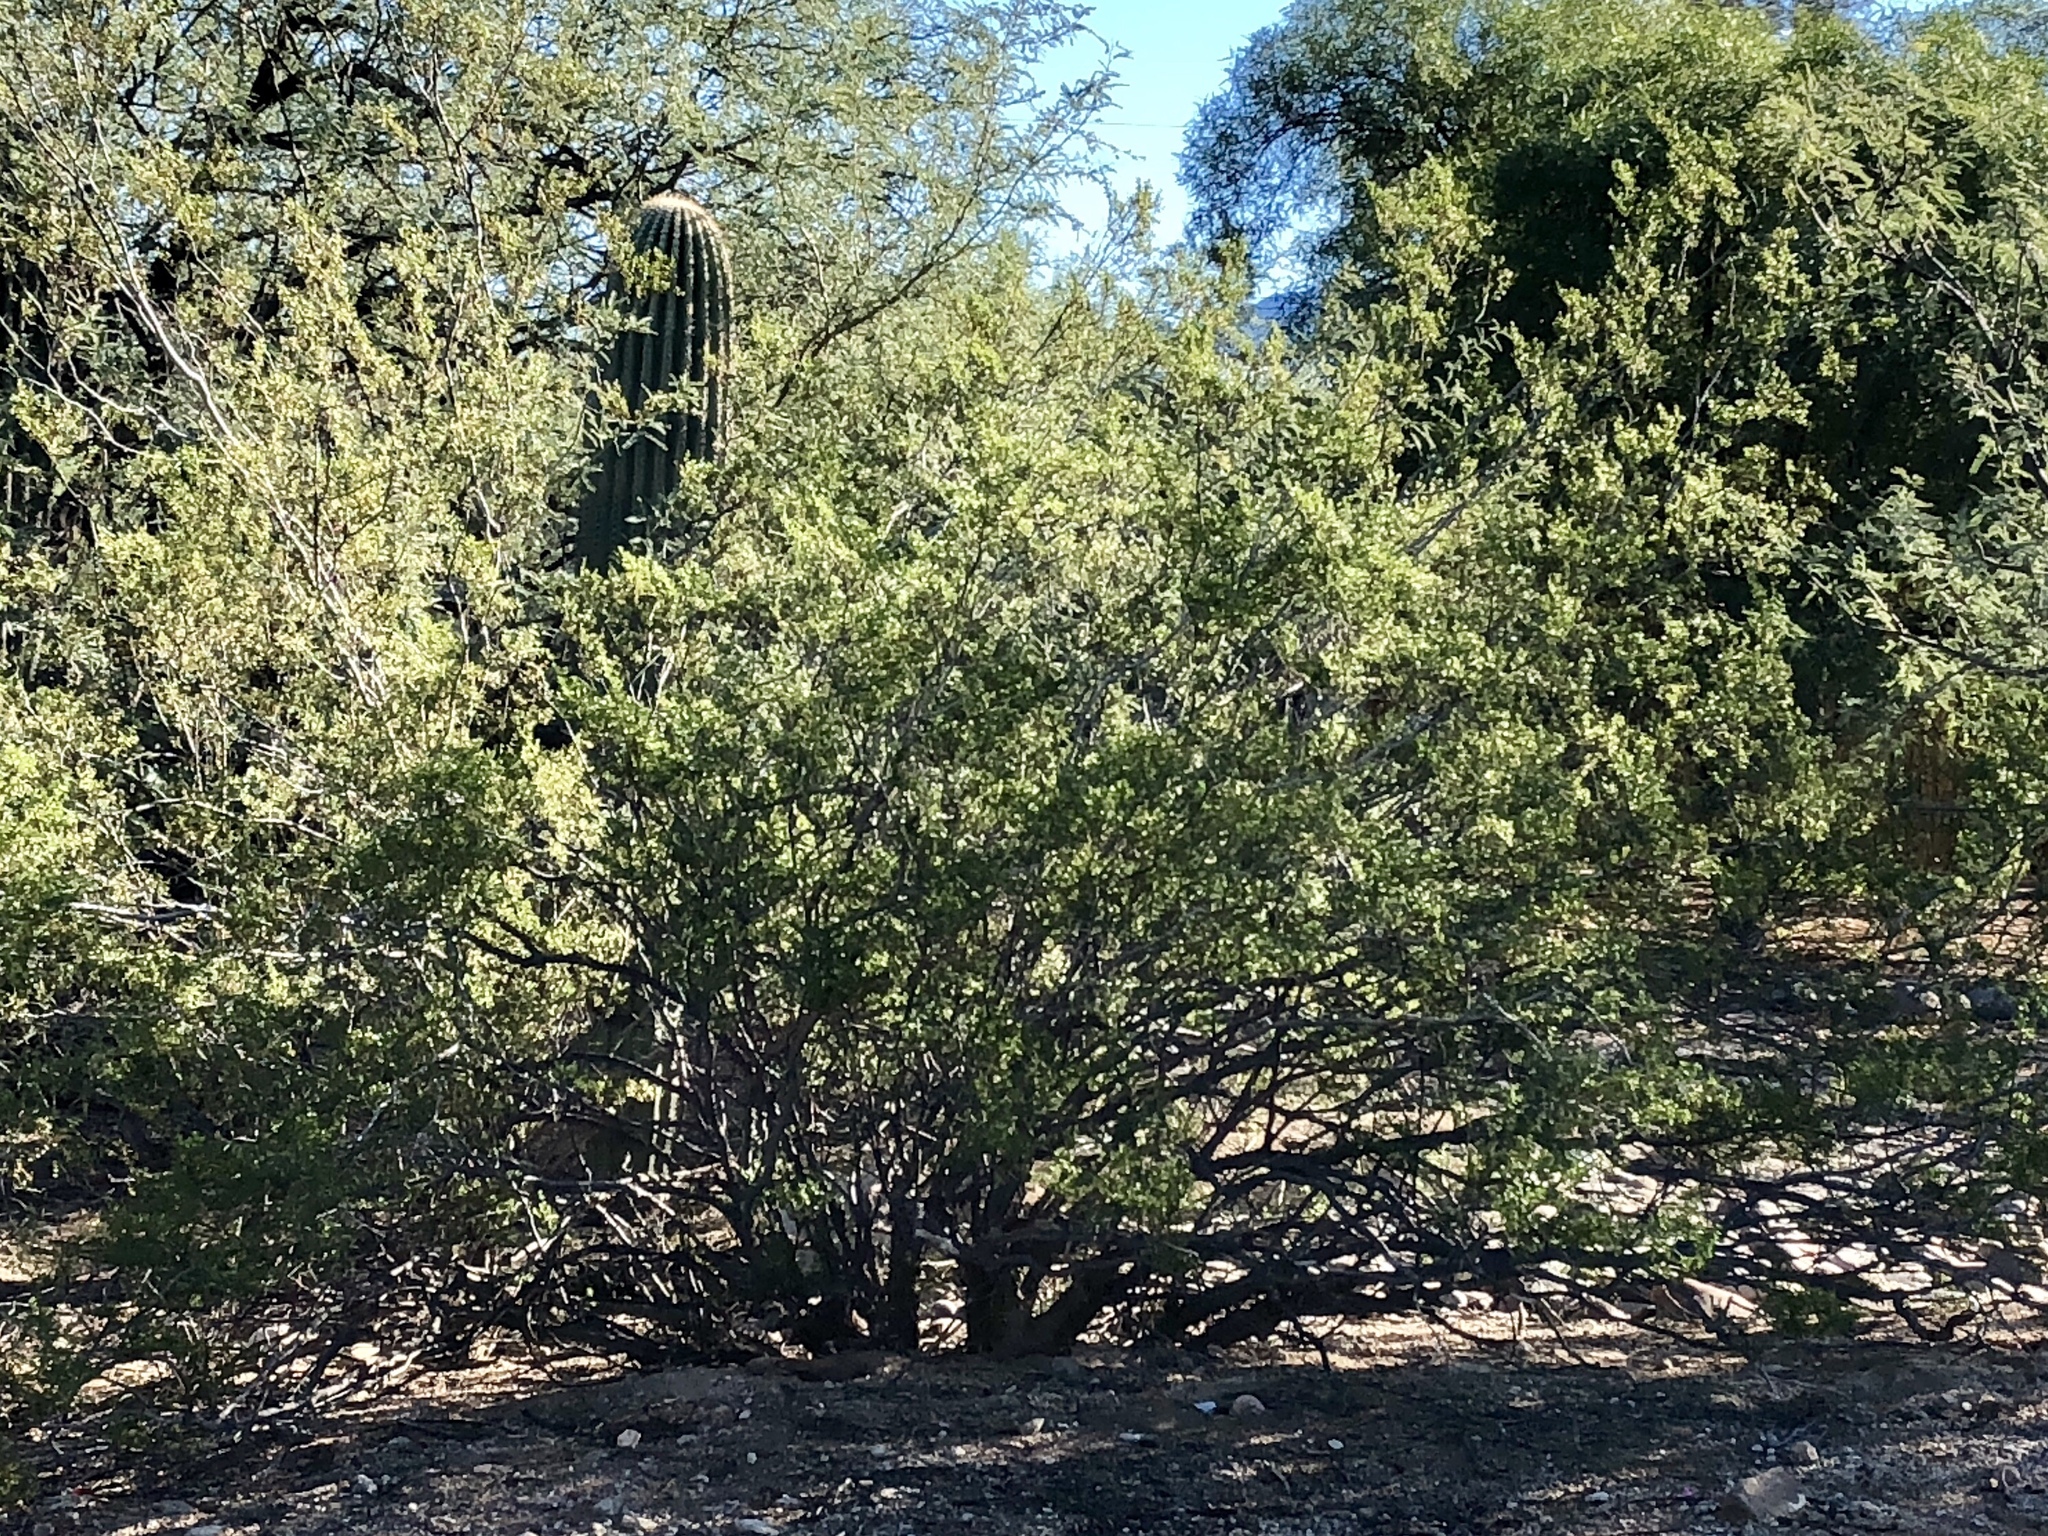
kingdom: Plantae
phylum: Tracheophyta
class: Magnoliopsida
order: Zygophyllales
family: Zygophyllaceae
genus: Larrea
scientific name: Larrea tridentata
